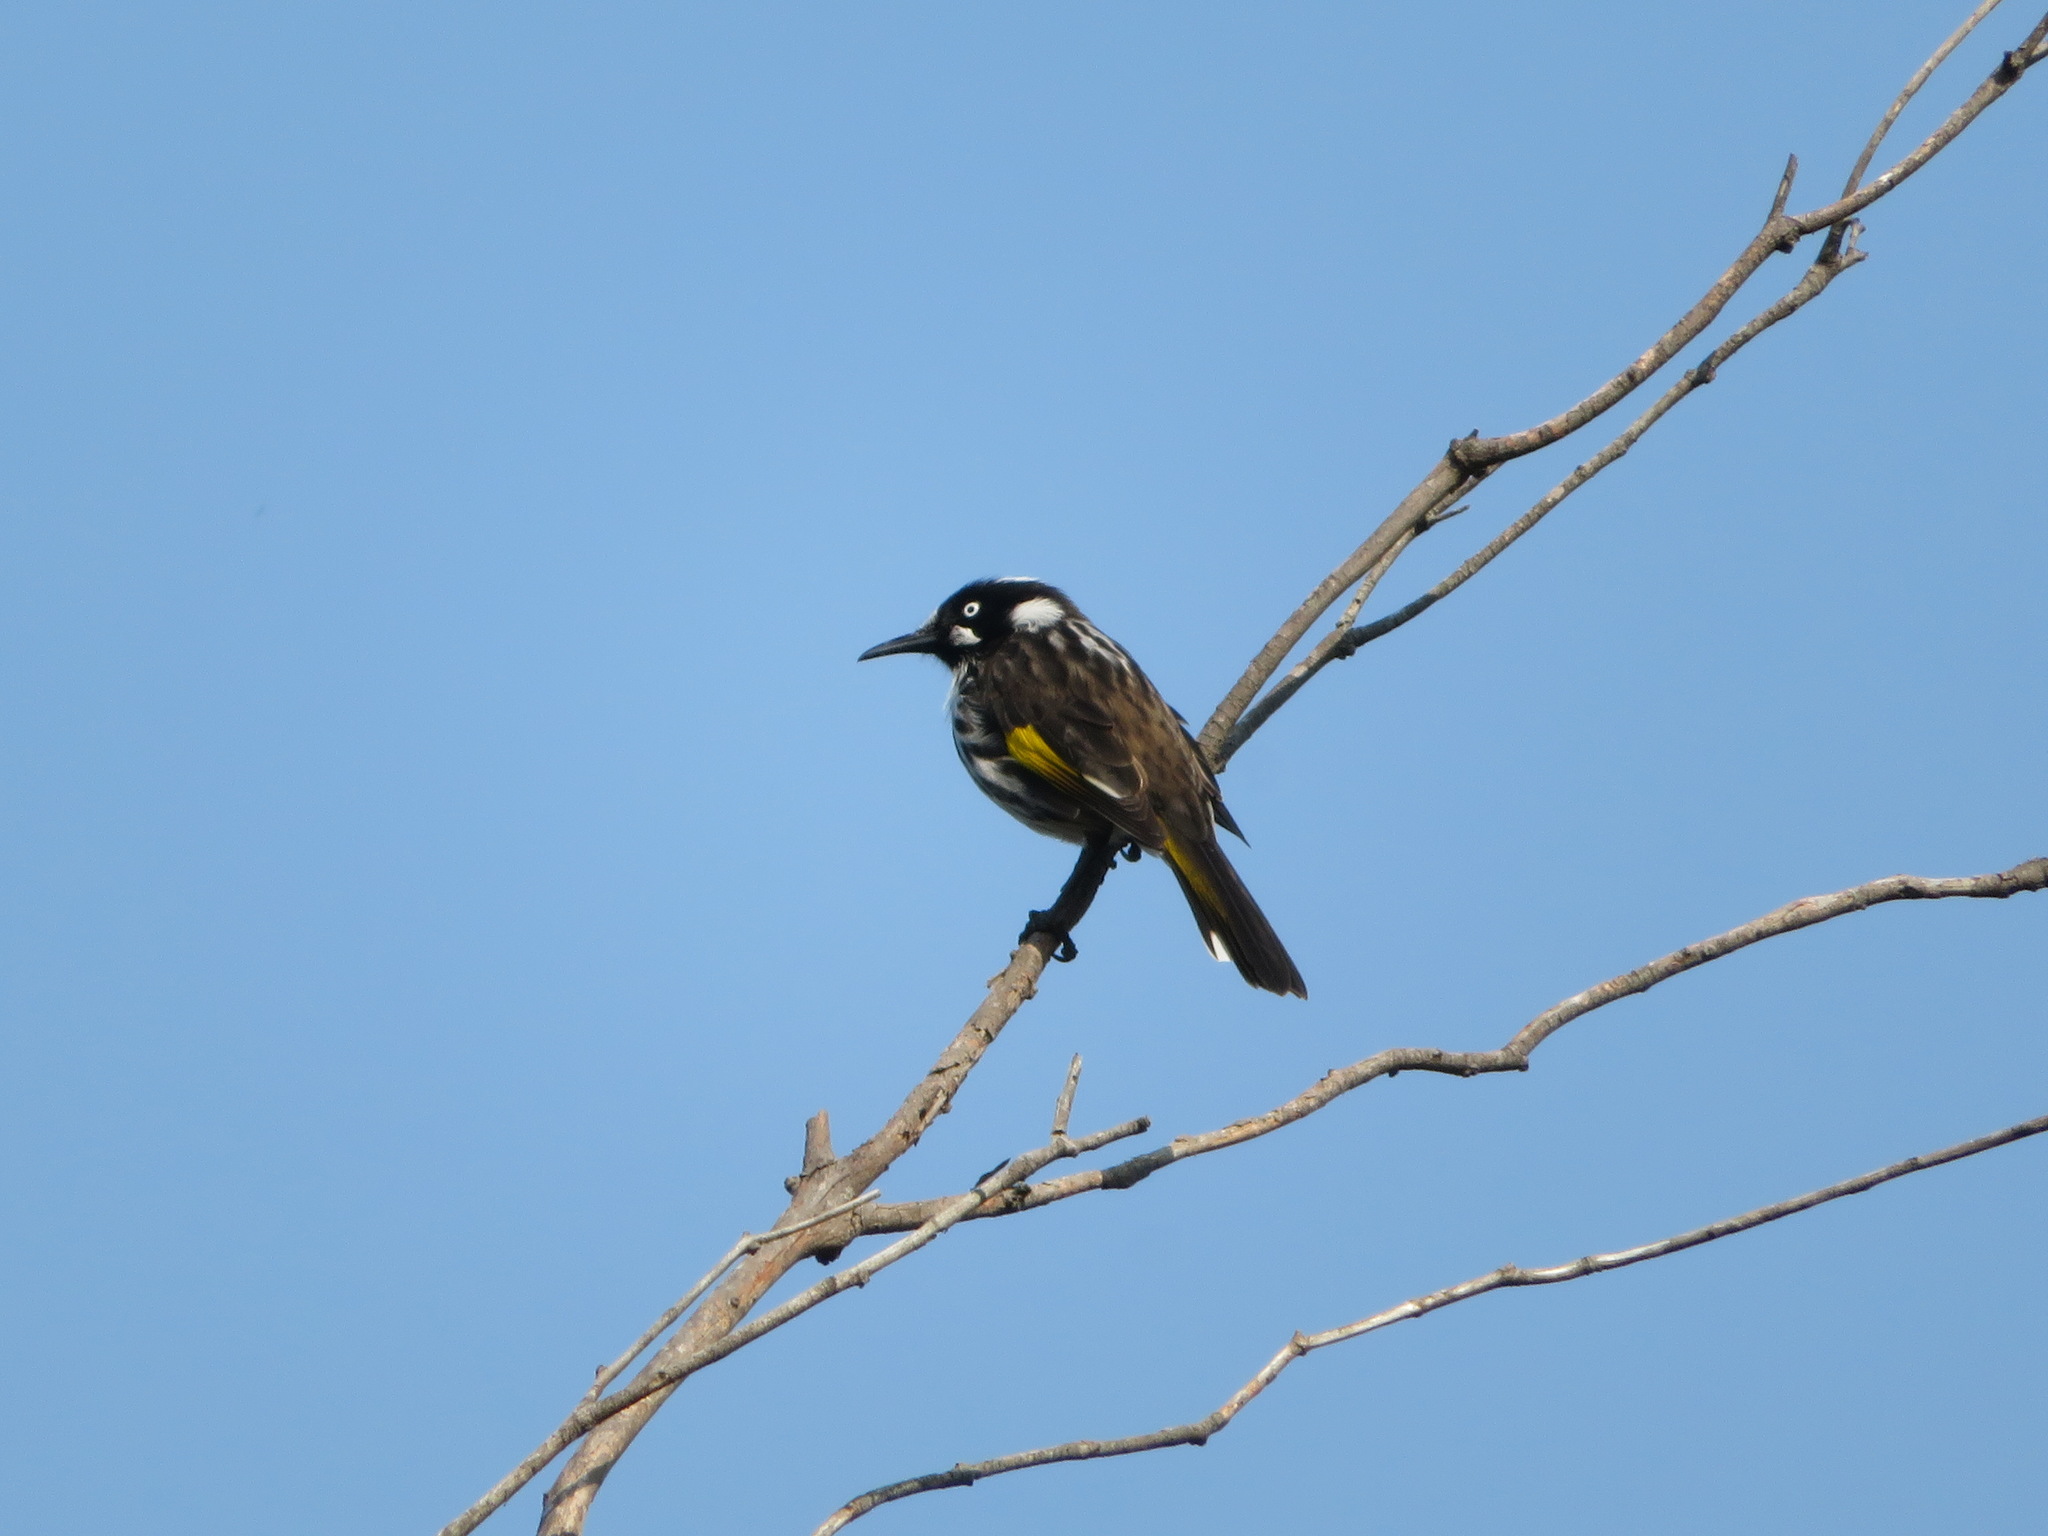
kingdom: Animalia
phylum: Chordata
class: Aves
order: Passeriformes
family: Meliphagidae
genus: Phylidonyris
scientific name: Phylidonyris novaehollandiae
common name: New holland honeyeater
